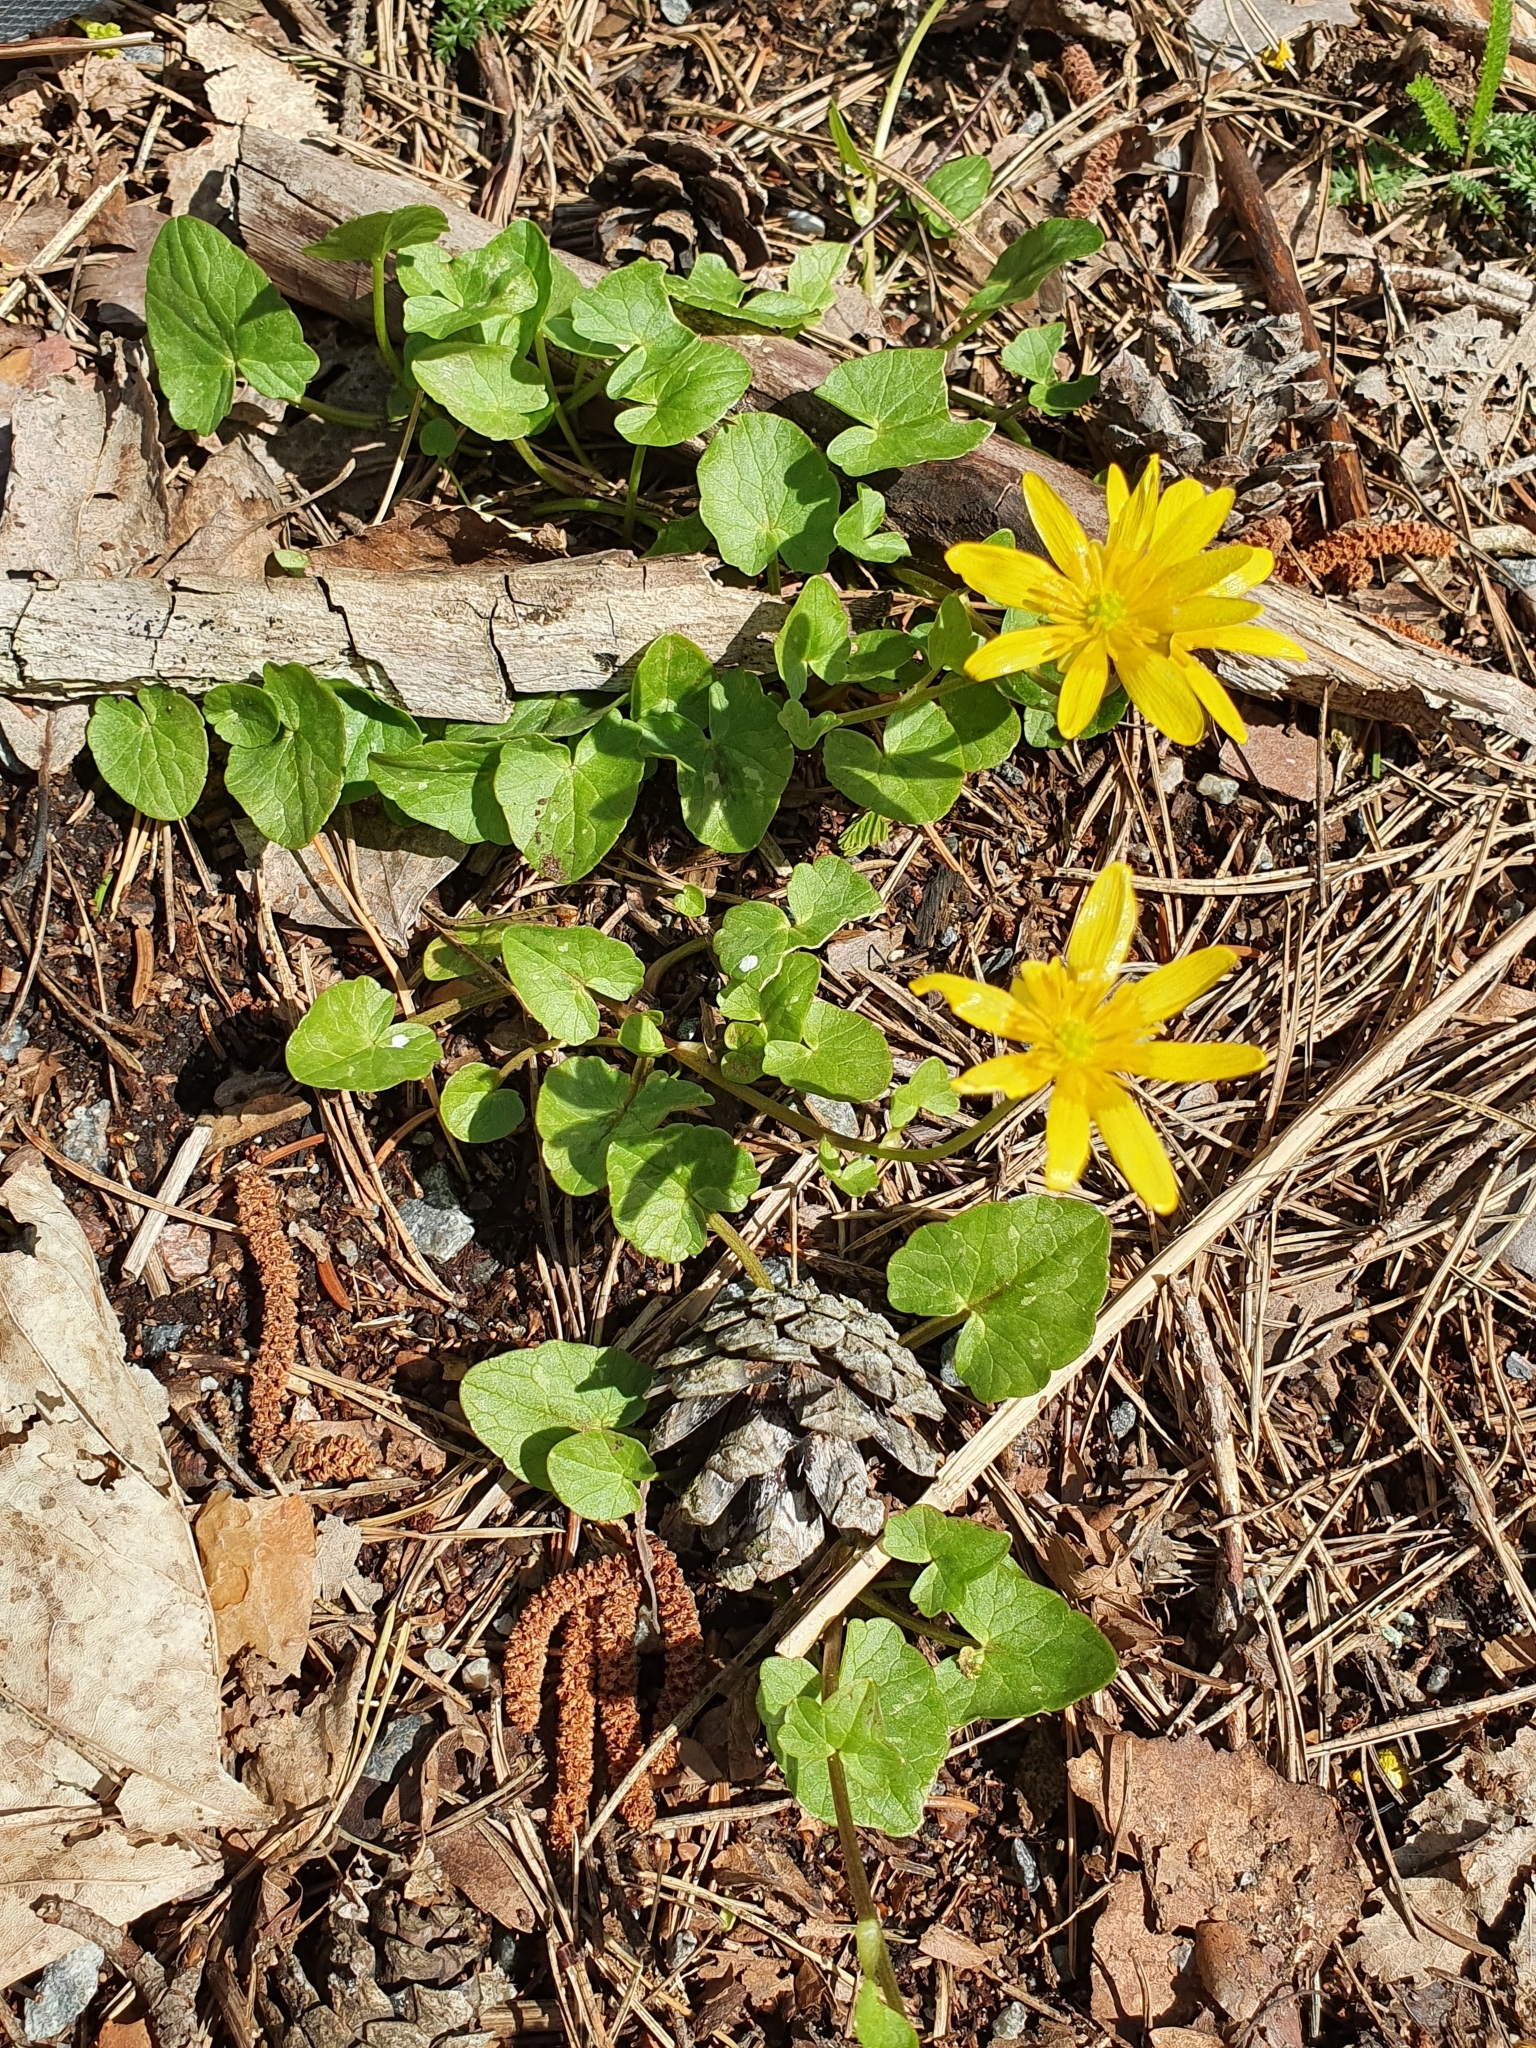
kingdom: Plantae
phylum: Tracheophyta
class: Magnoliopsida
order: Ranunculales
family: Ranunculaceae
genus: Ficaria
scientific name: Ficaria verna
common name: Lesser celandine
